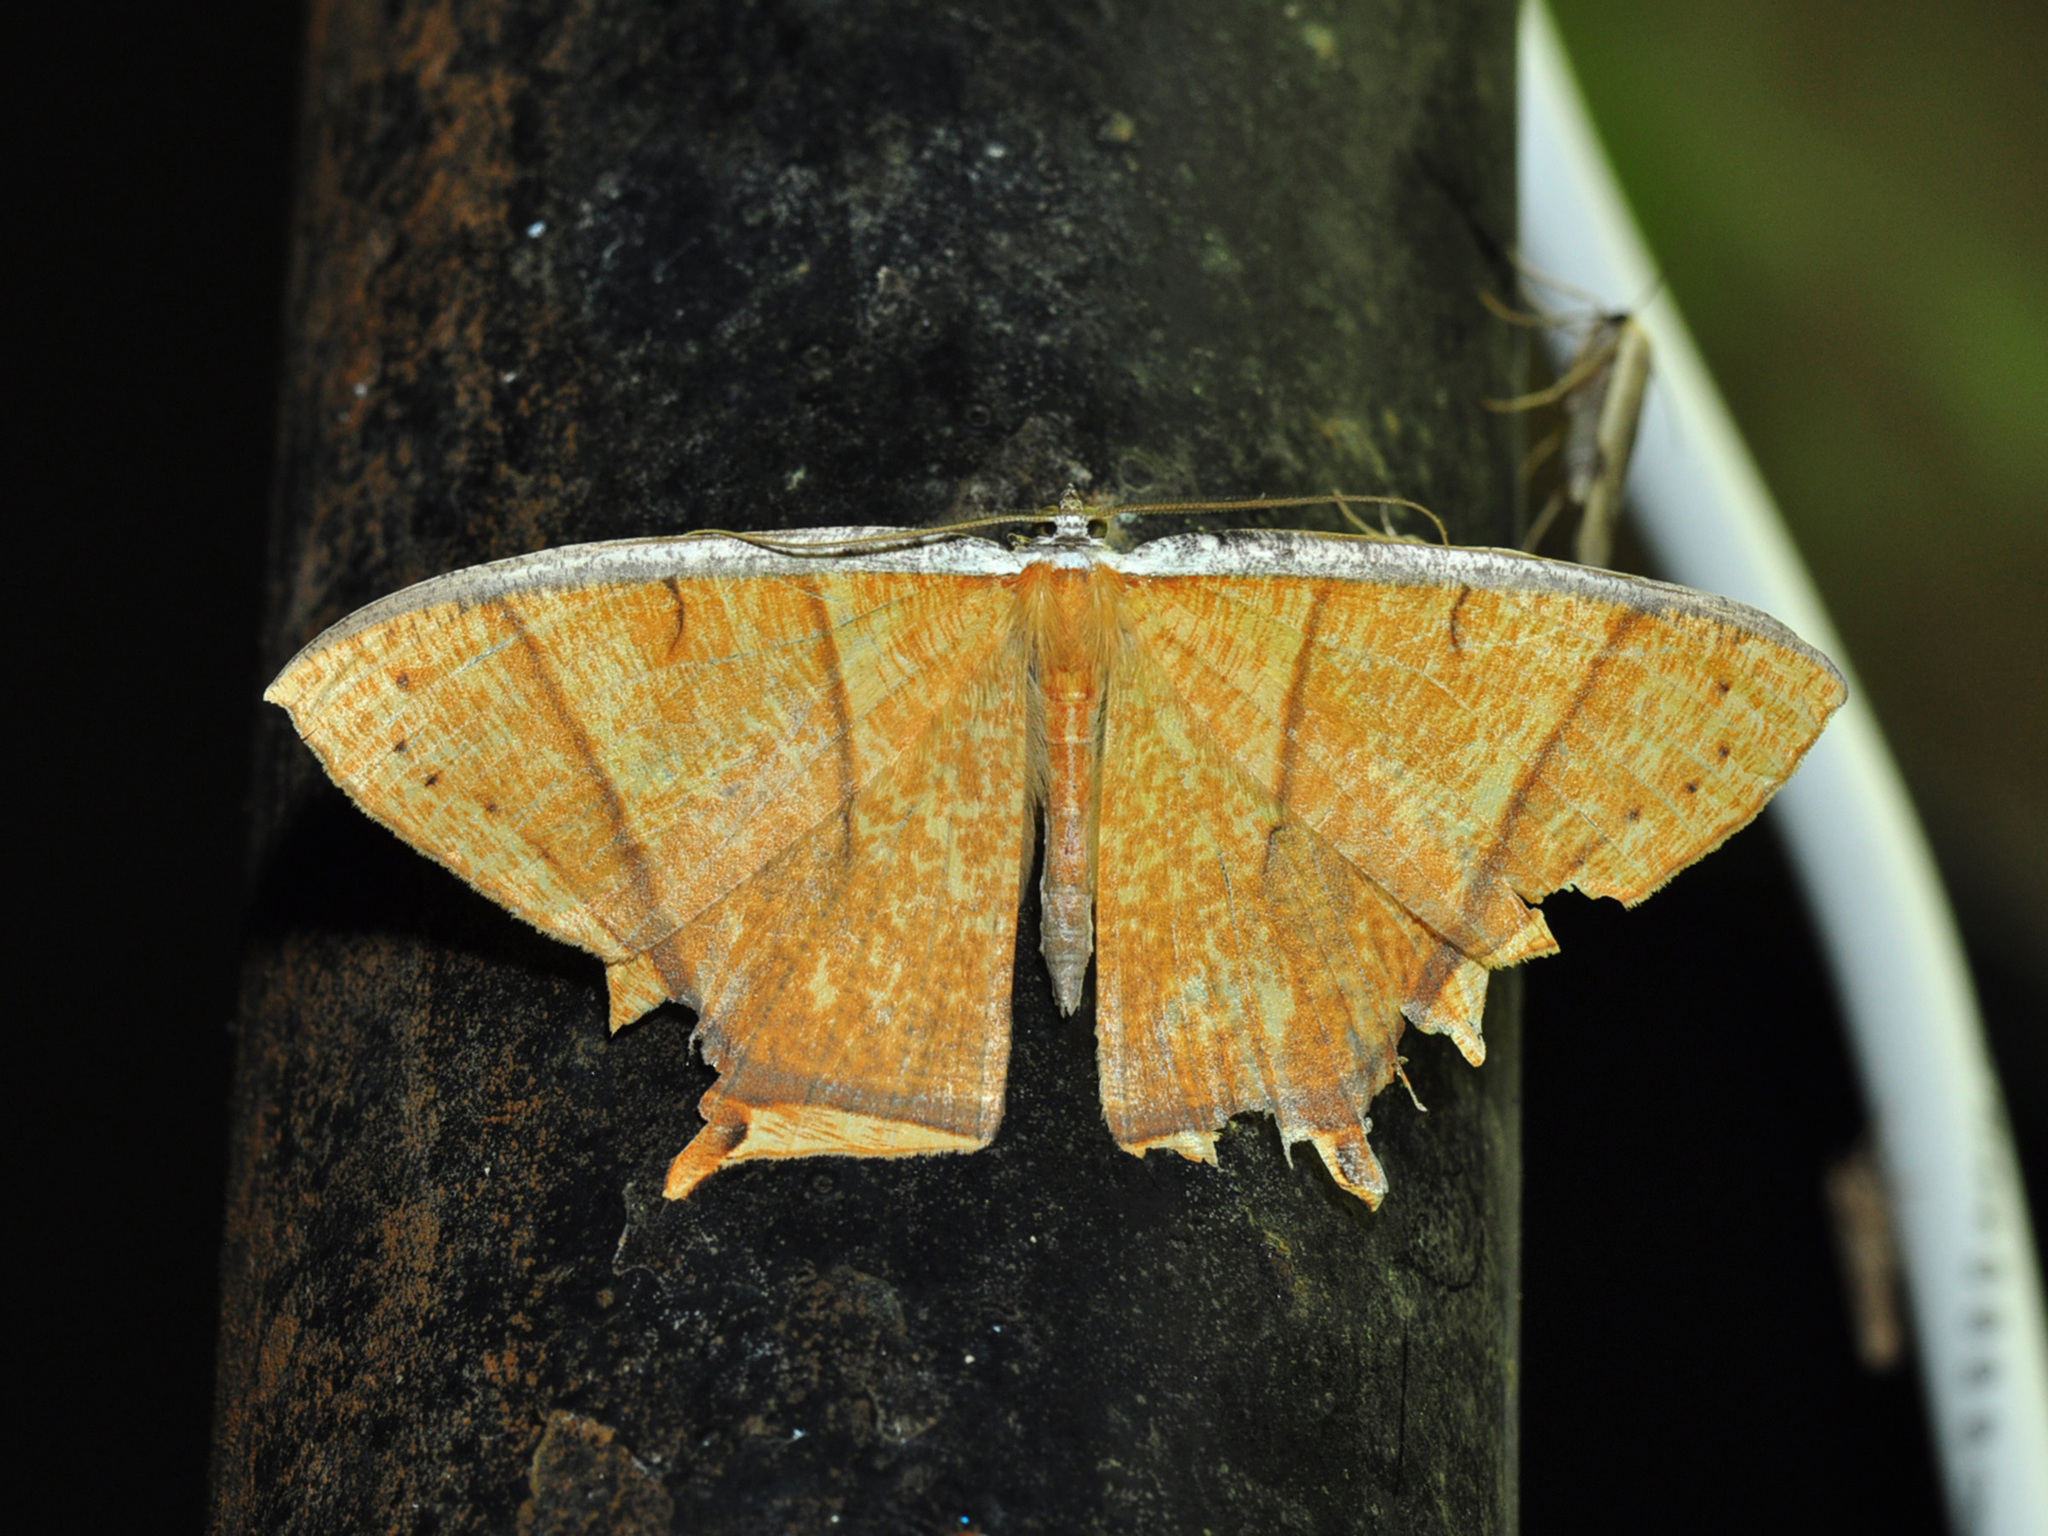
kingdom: Animalia
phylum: Arthropoda
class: Insecta
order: Lepidoptera
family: Geometridae
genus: Thinopteryx
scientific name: Thinopteryx crocoptera
